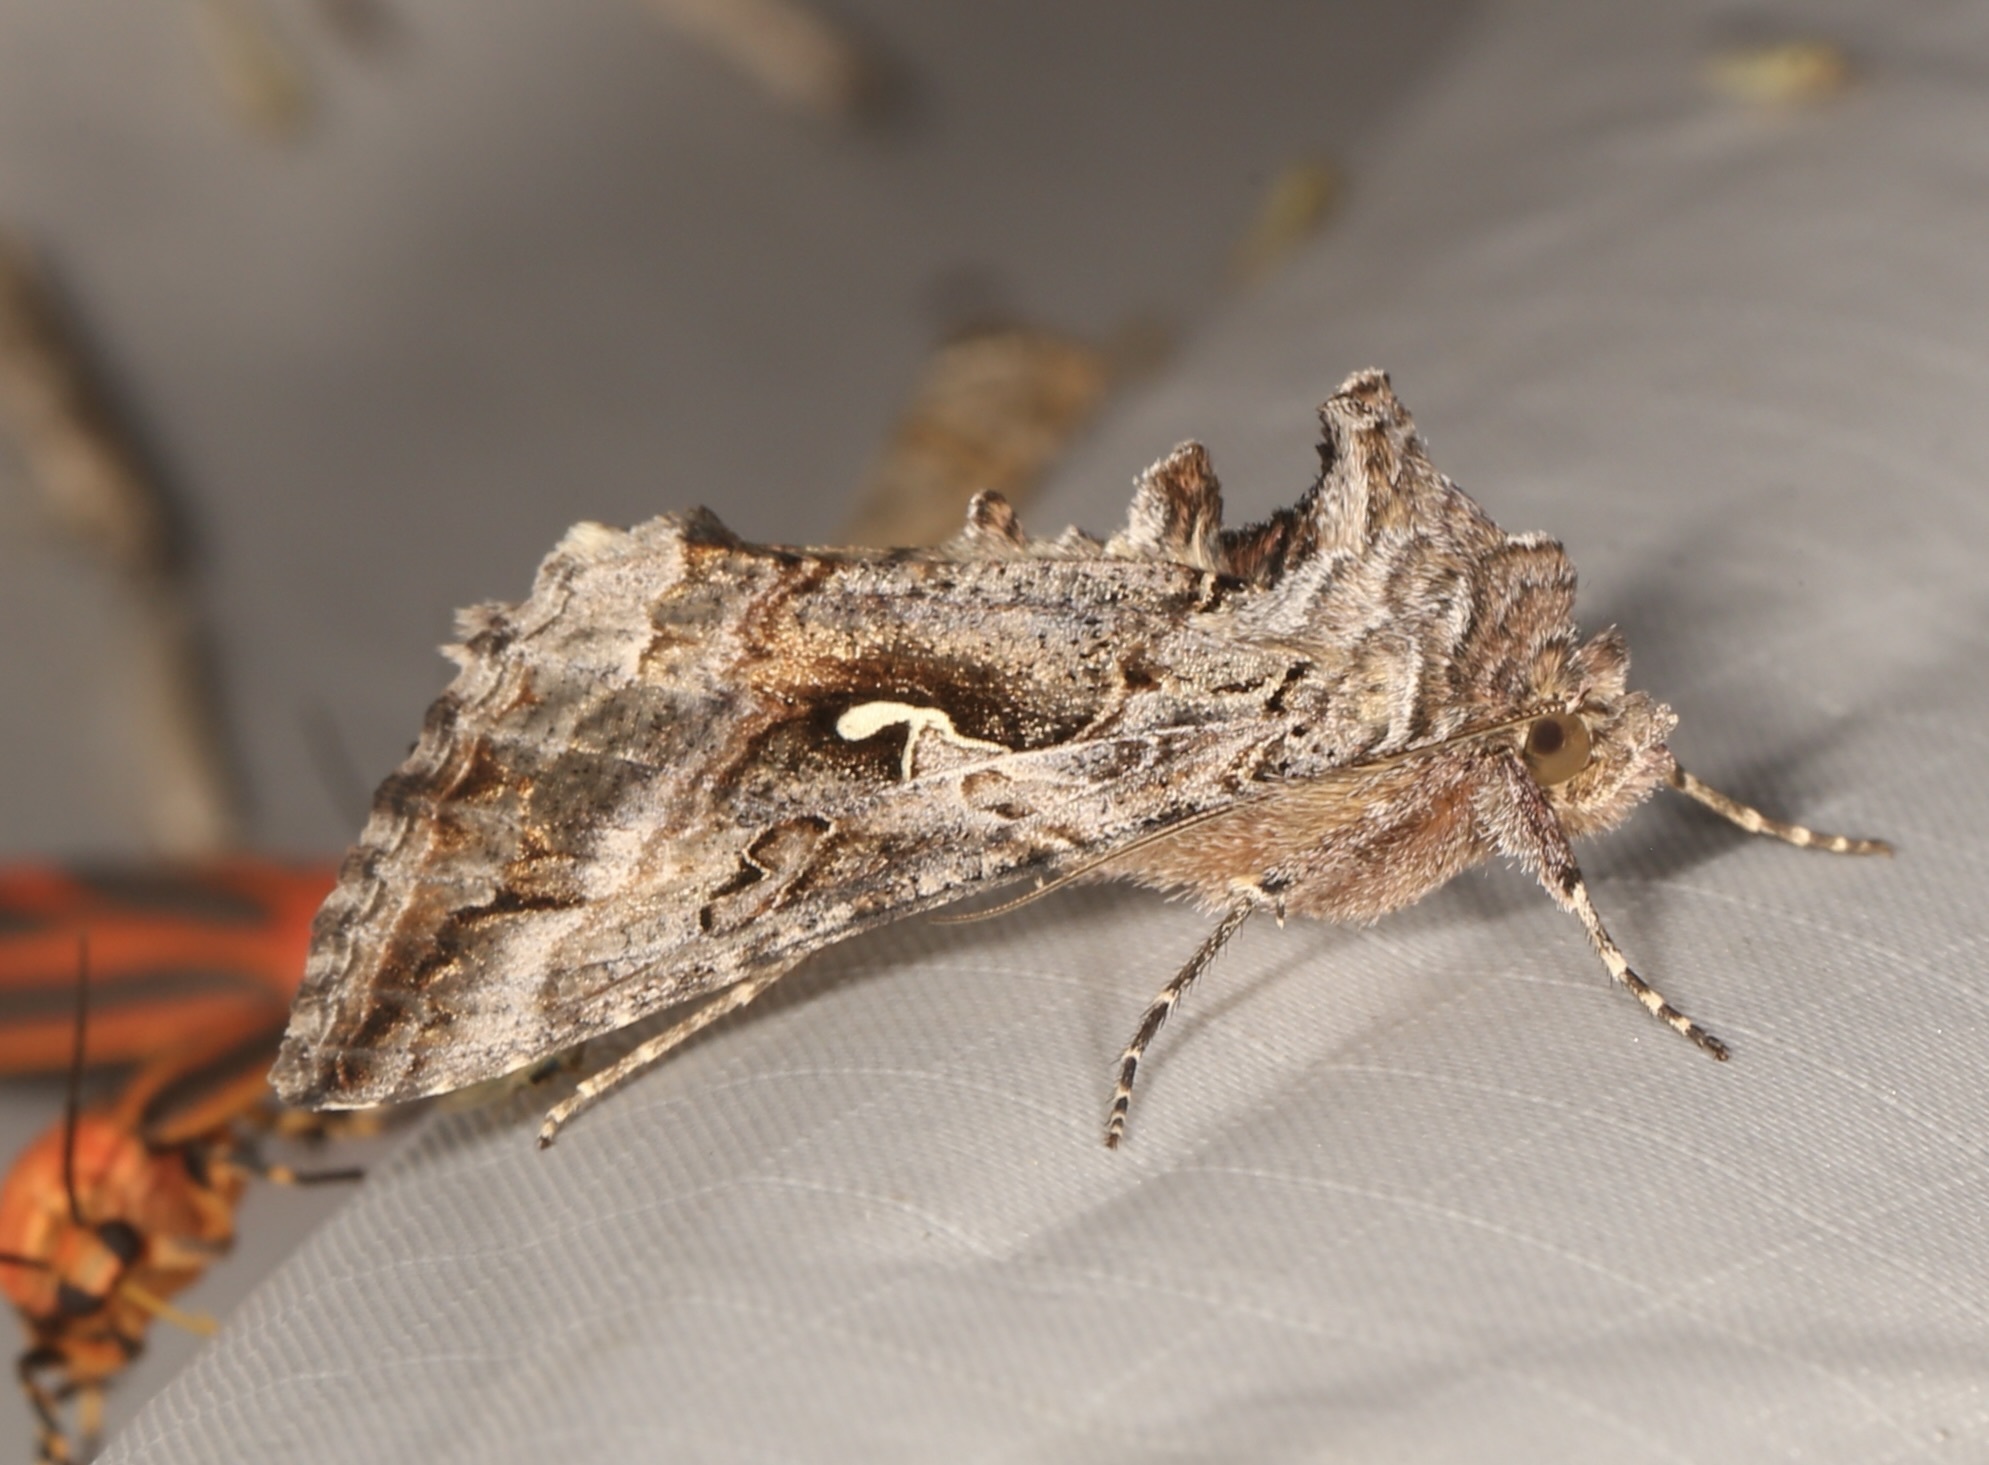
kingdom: Animalia
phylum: Arthropoda
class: Insecta
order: Lepidoptera
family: Noctuidae
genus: Autographa
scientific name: Autographa californica
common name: Alfalfa looper
